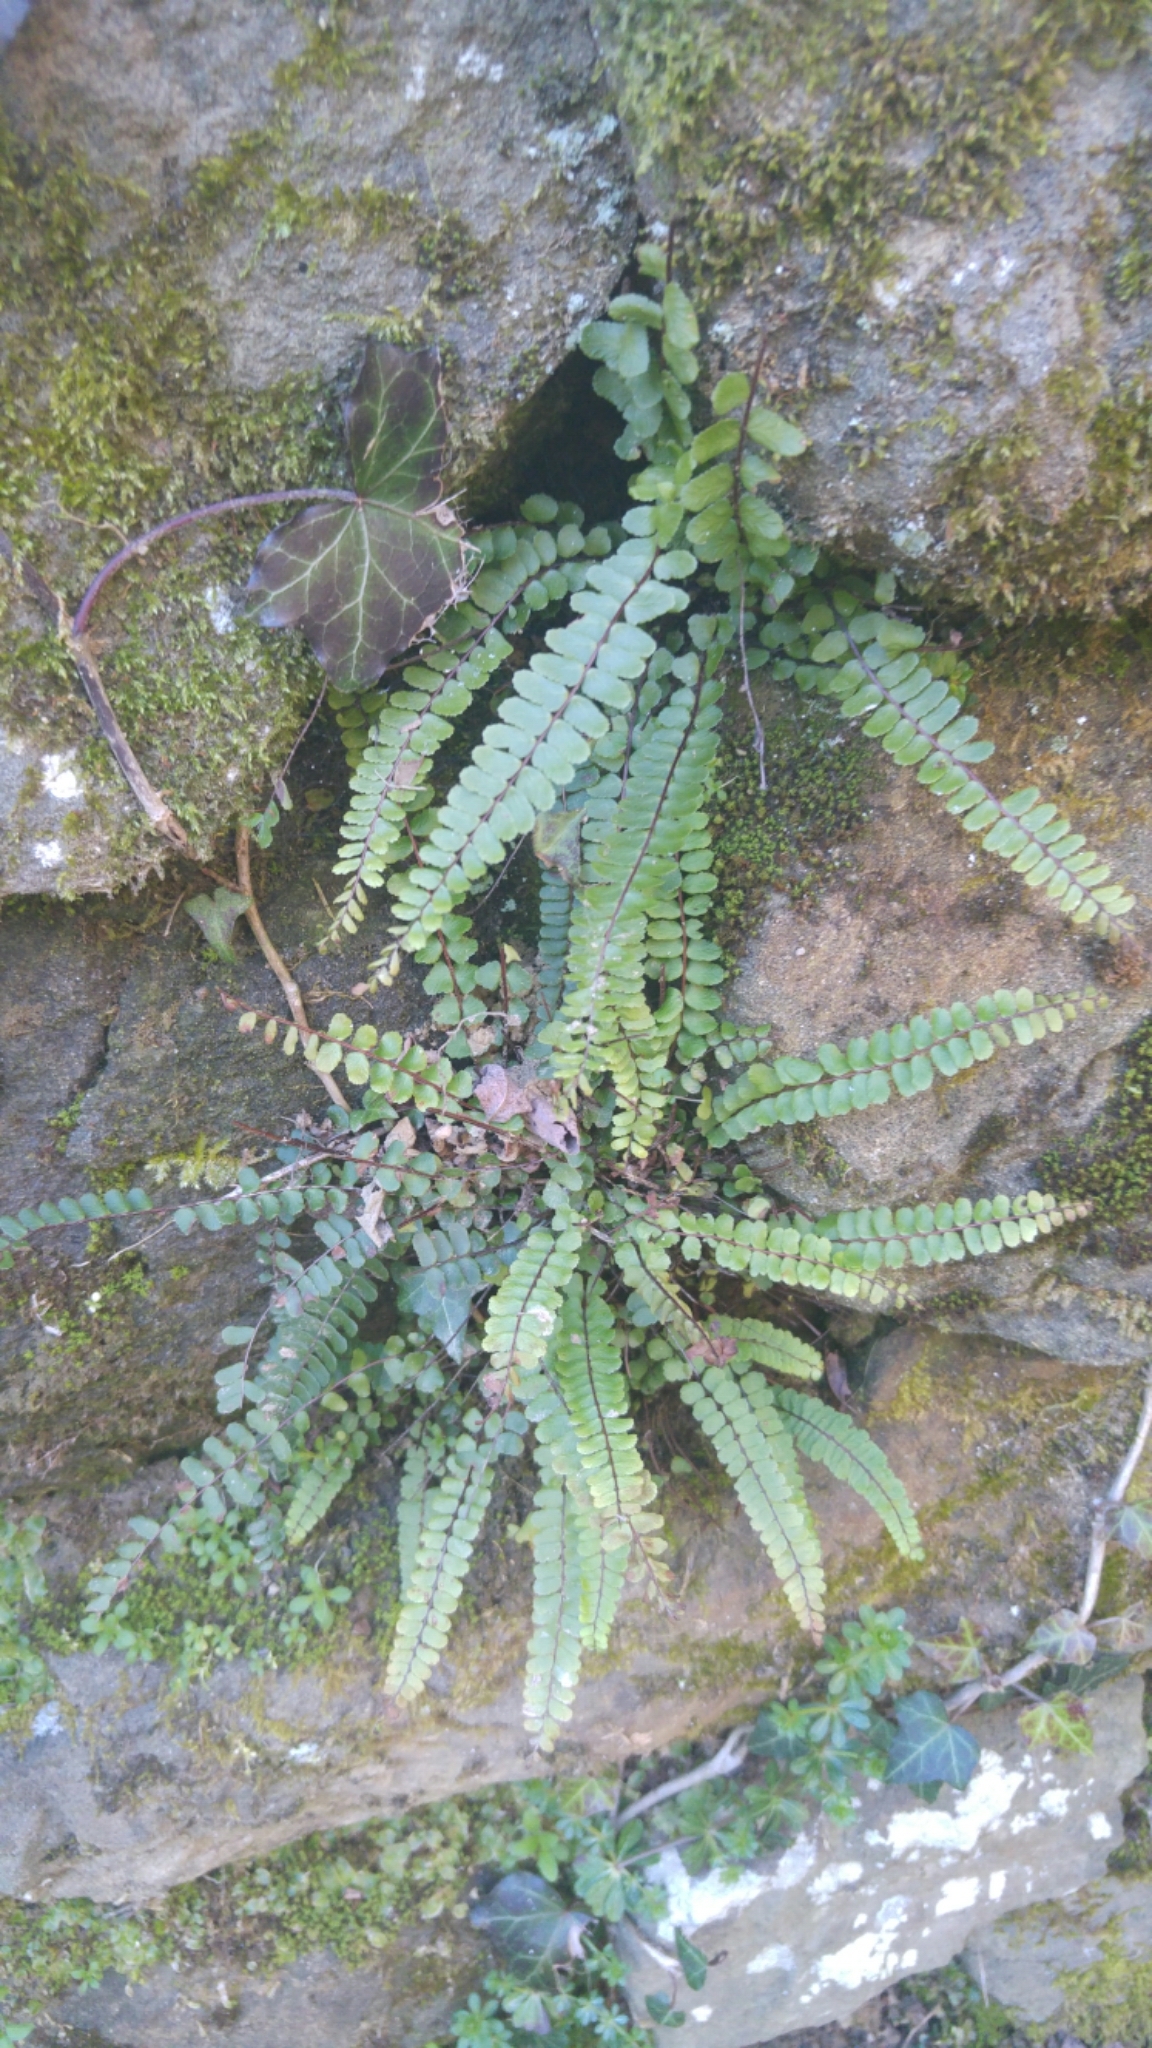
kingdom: Plantae
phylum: Tracheophyta
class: Polypodiopsida
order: Polypodiales
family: Aspleniaceae
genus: Asplenium
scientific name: Asplenium trichomanes
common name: Maidenhair spleenwort
